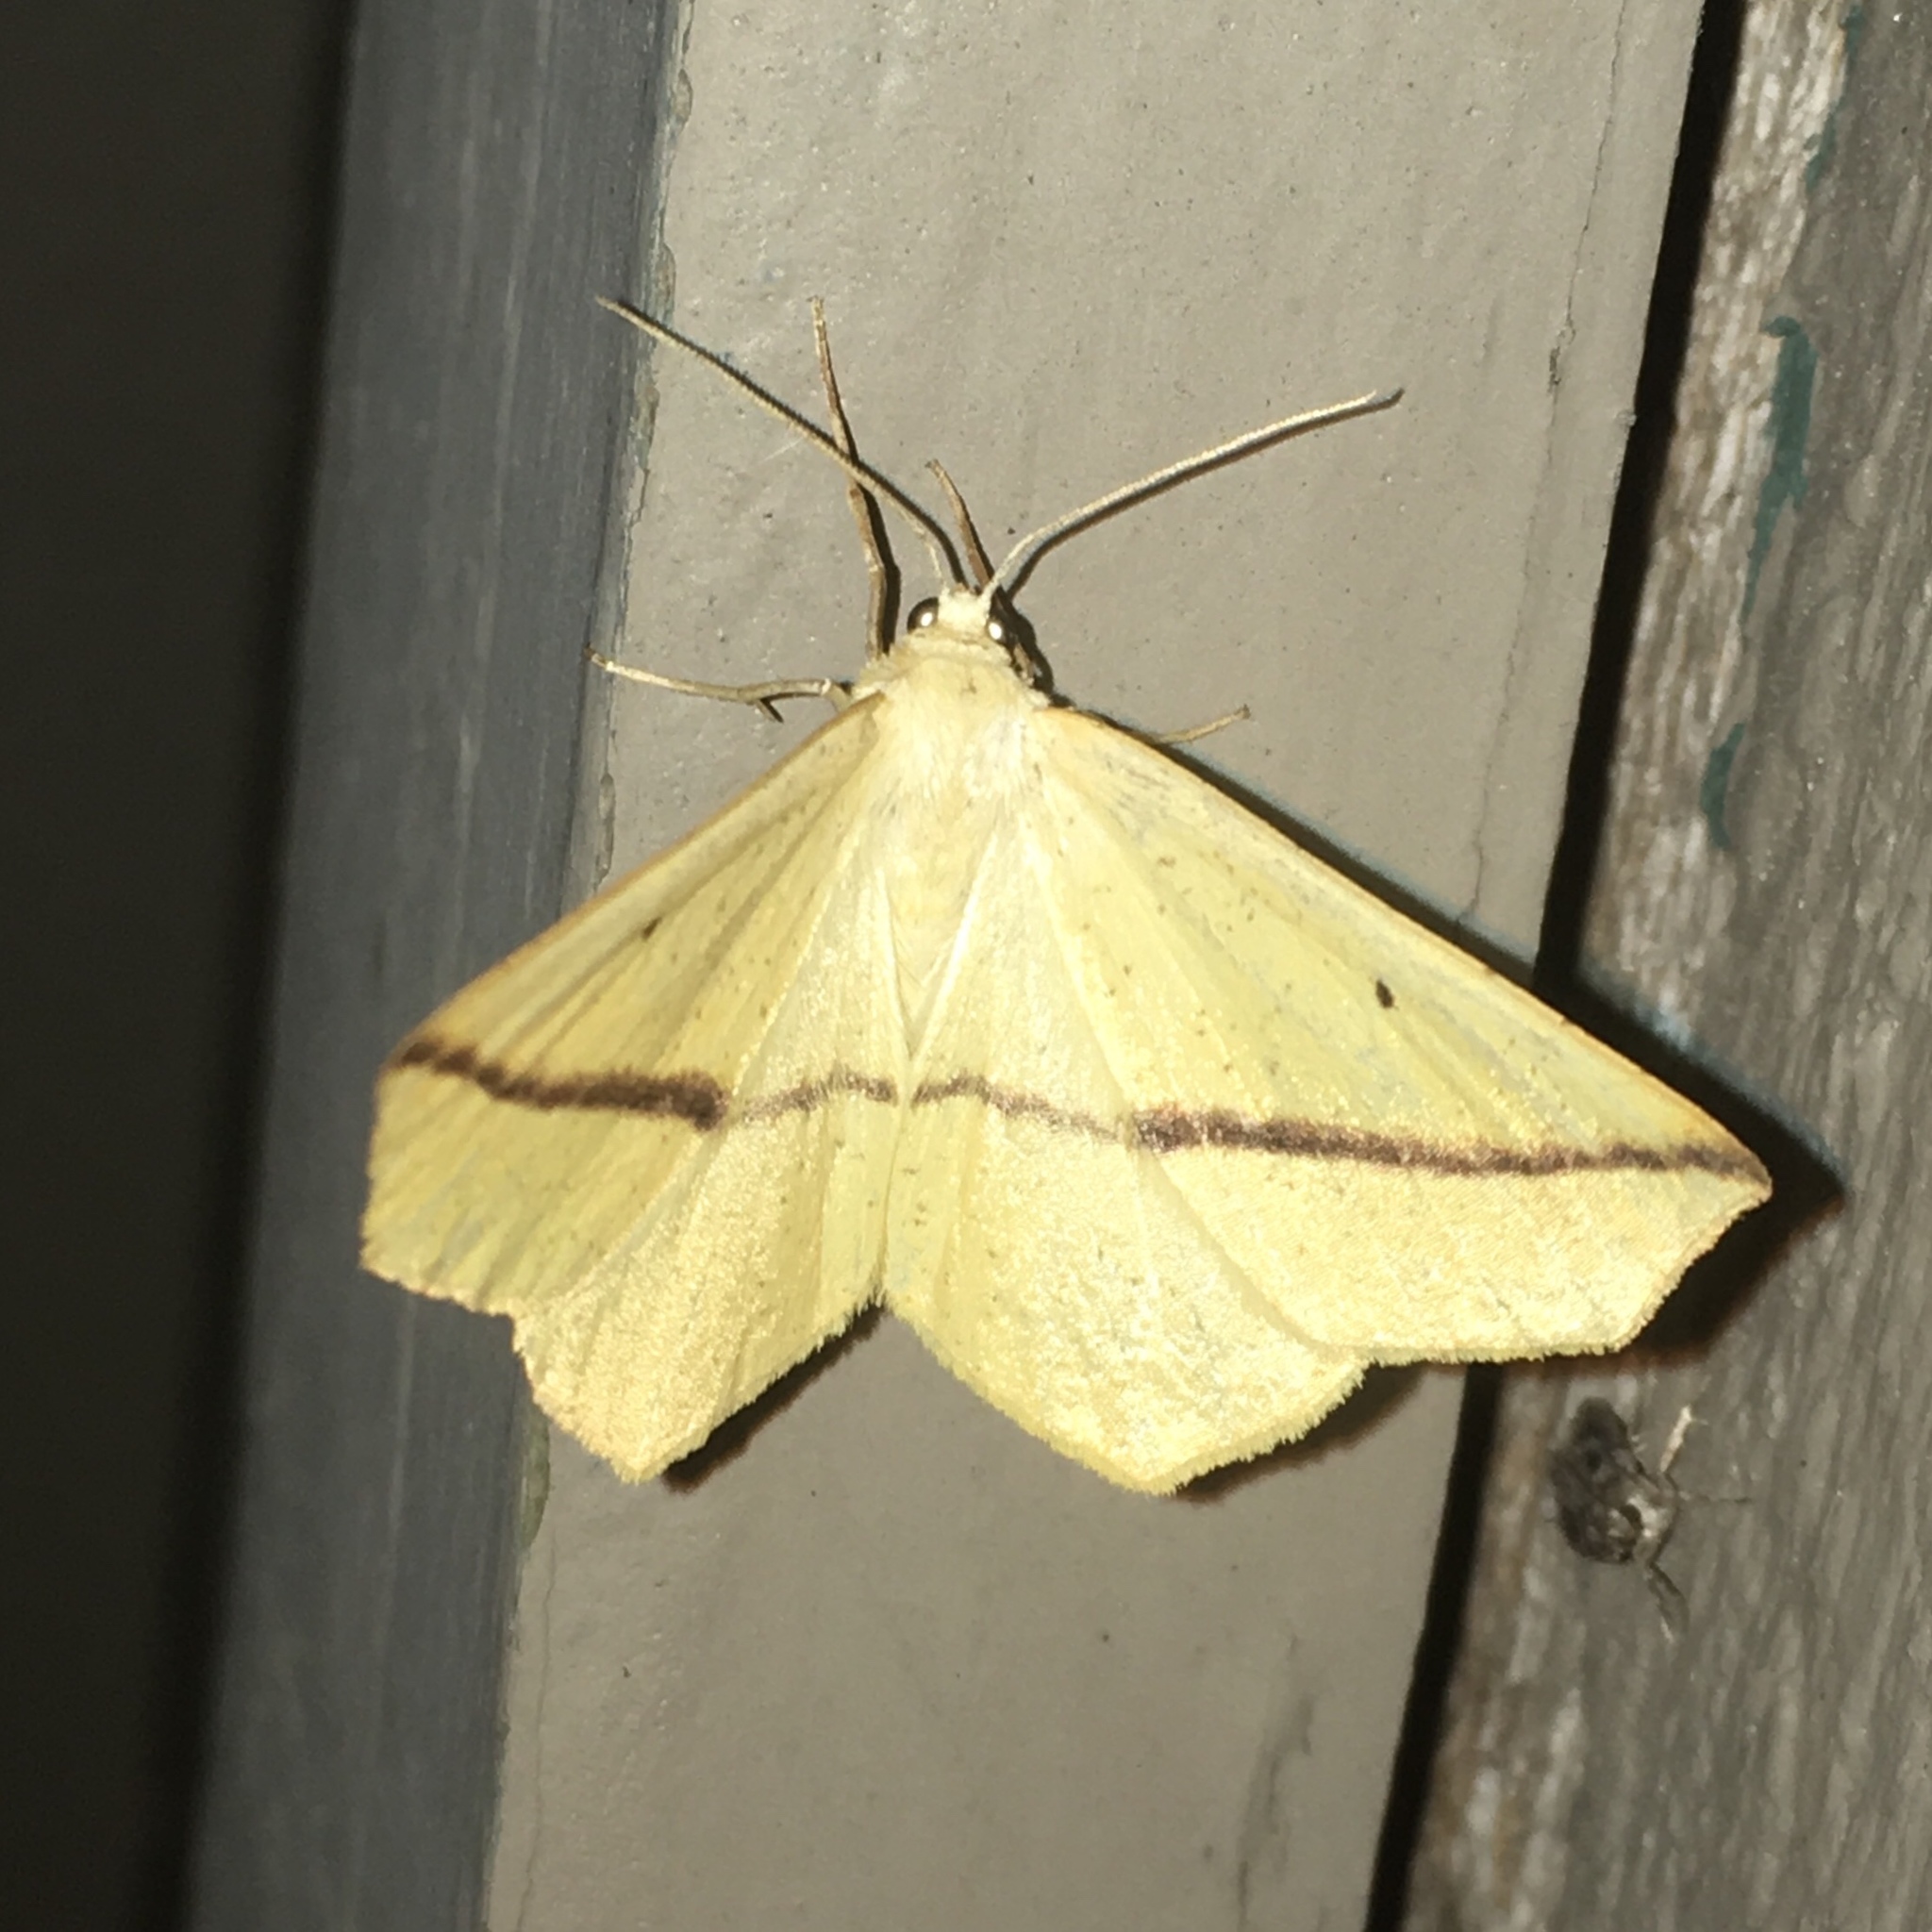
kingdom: Animalia
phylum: Arthropoda
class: Insecta
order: Lepidoptera
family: Geometridae
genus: Tetracis
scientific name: Tetracis crocallata
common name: Yellow slant-line
